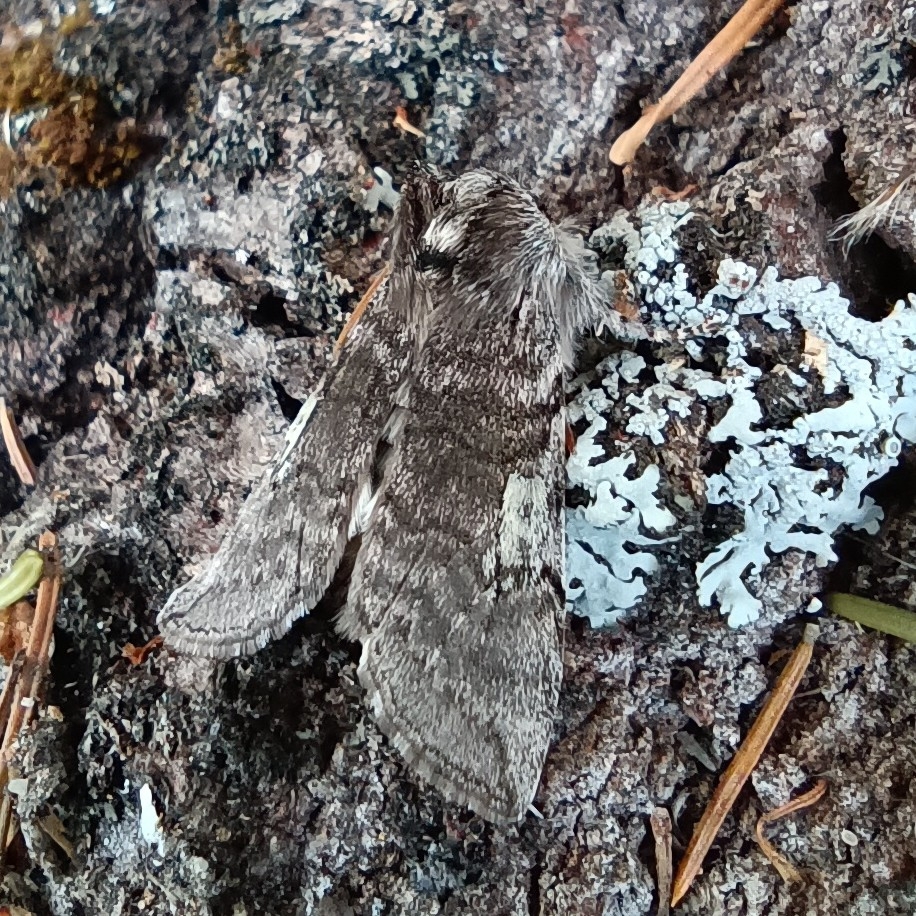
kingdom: Animalia
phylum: Arthropoda
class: Insecta
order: Lepidoptera
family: Drepanidae
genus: Achlya
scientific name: Achlya flavicornis
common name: Yellow horned
